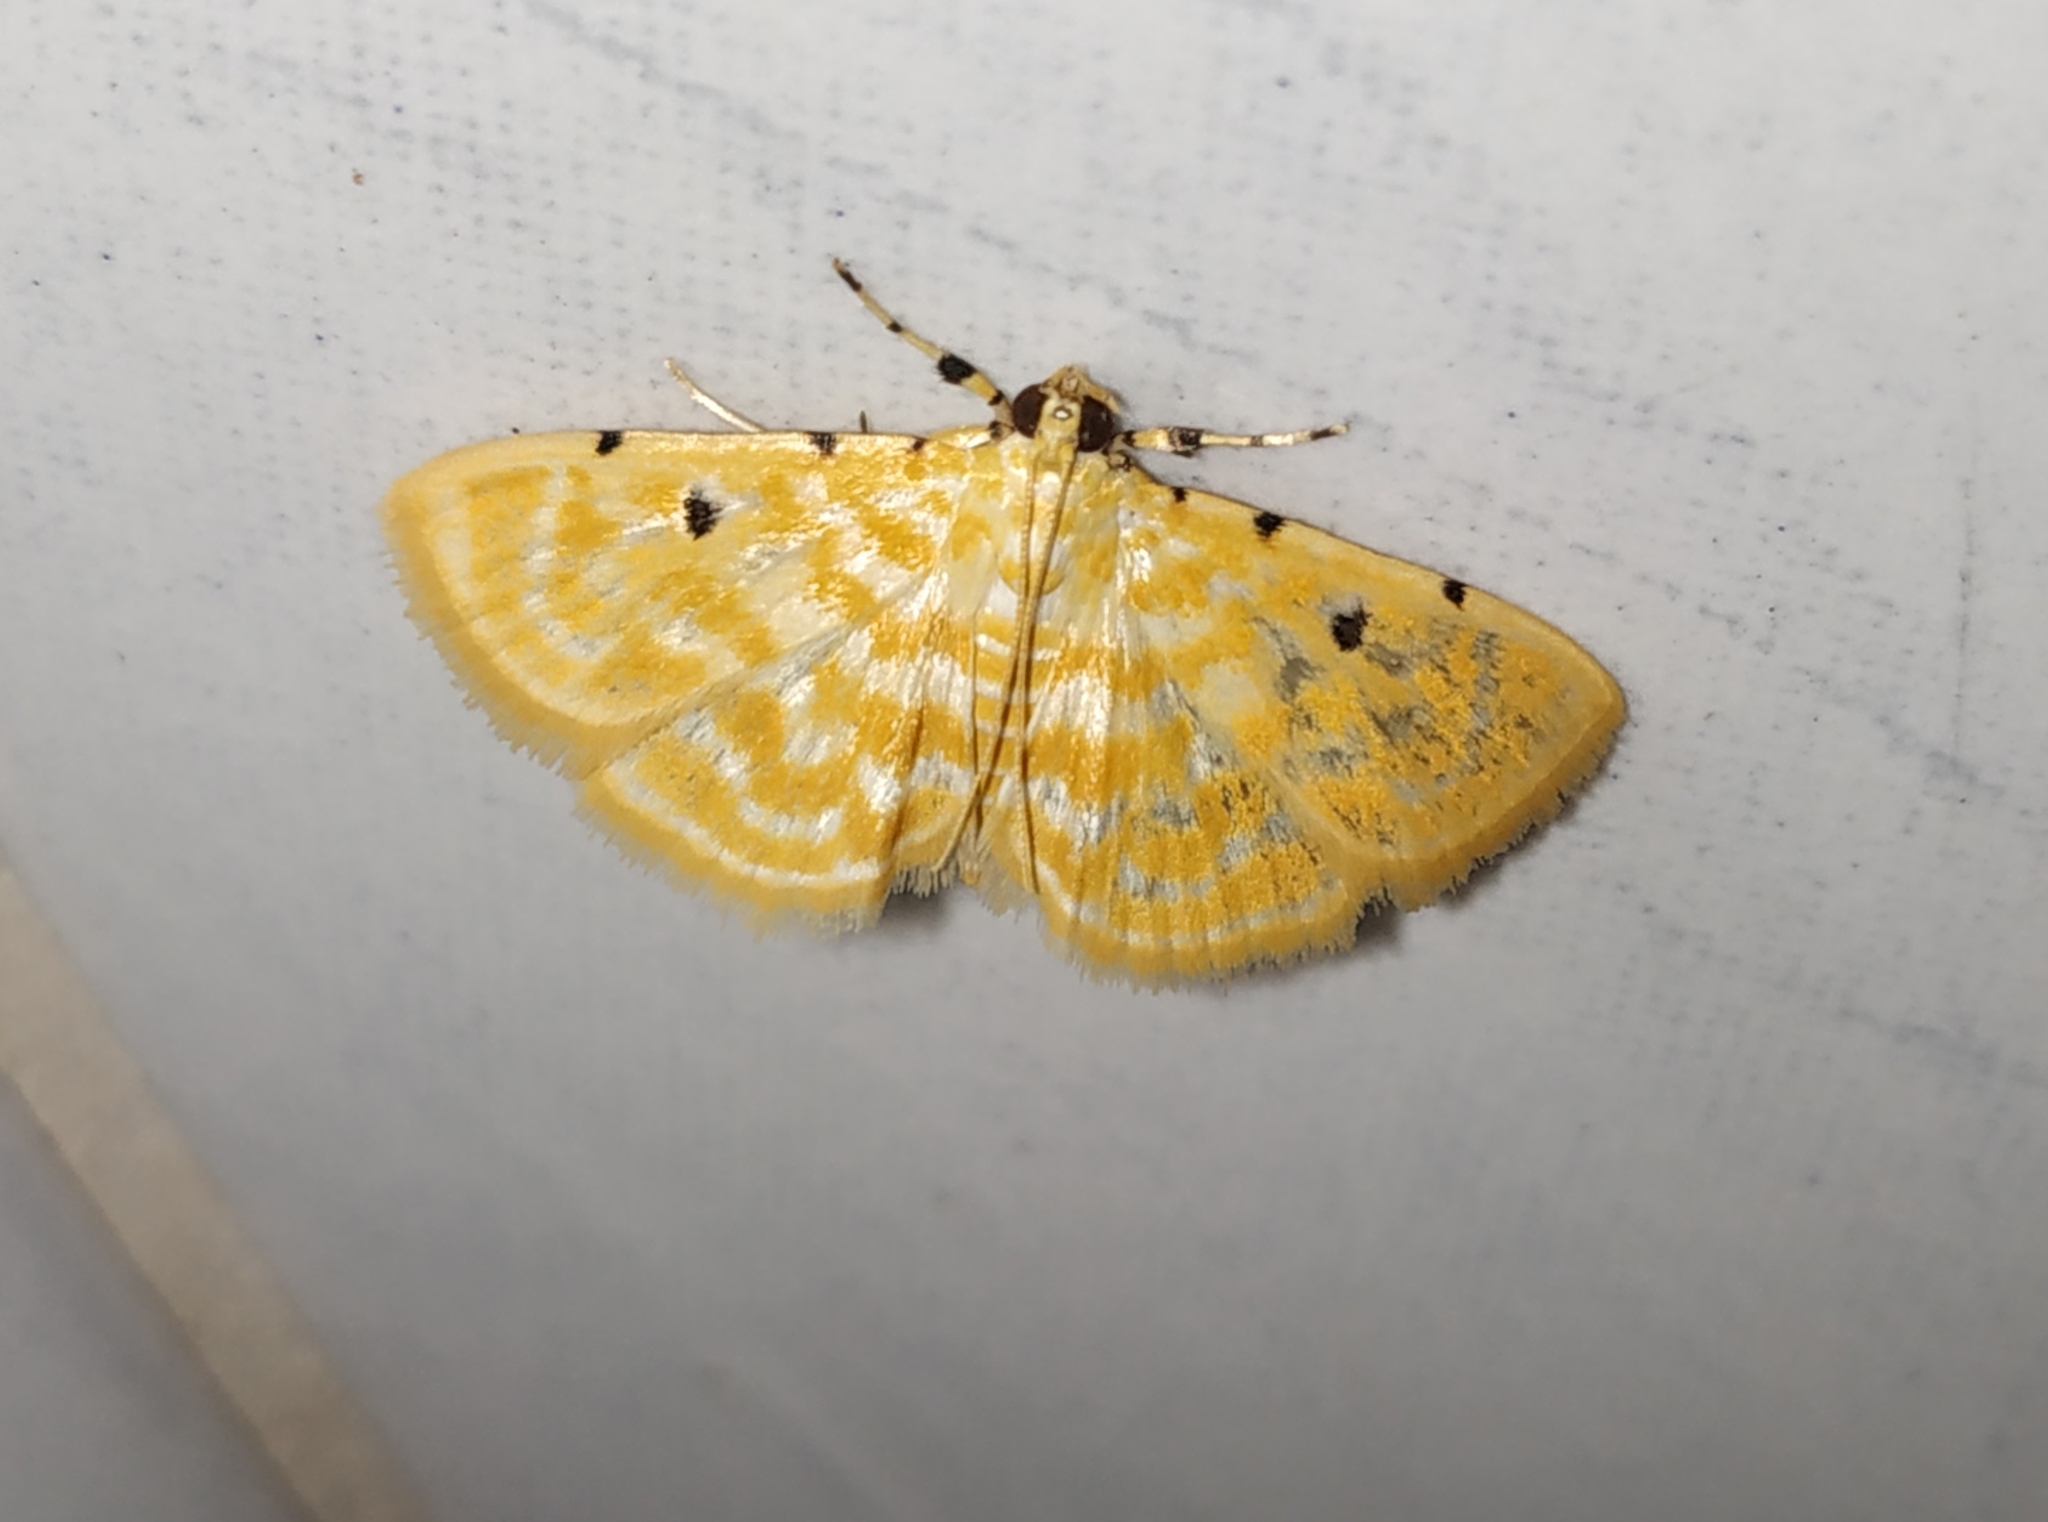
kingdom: Animalia
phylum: Arthropoda
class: Insecta
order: Lepidoptera
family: Crambidae
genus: Notarcha
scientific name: Notarcha aurolinealis
